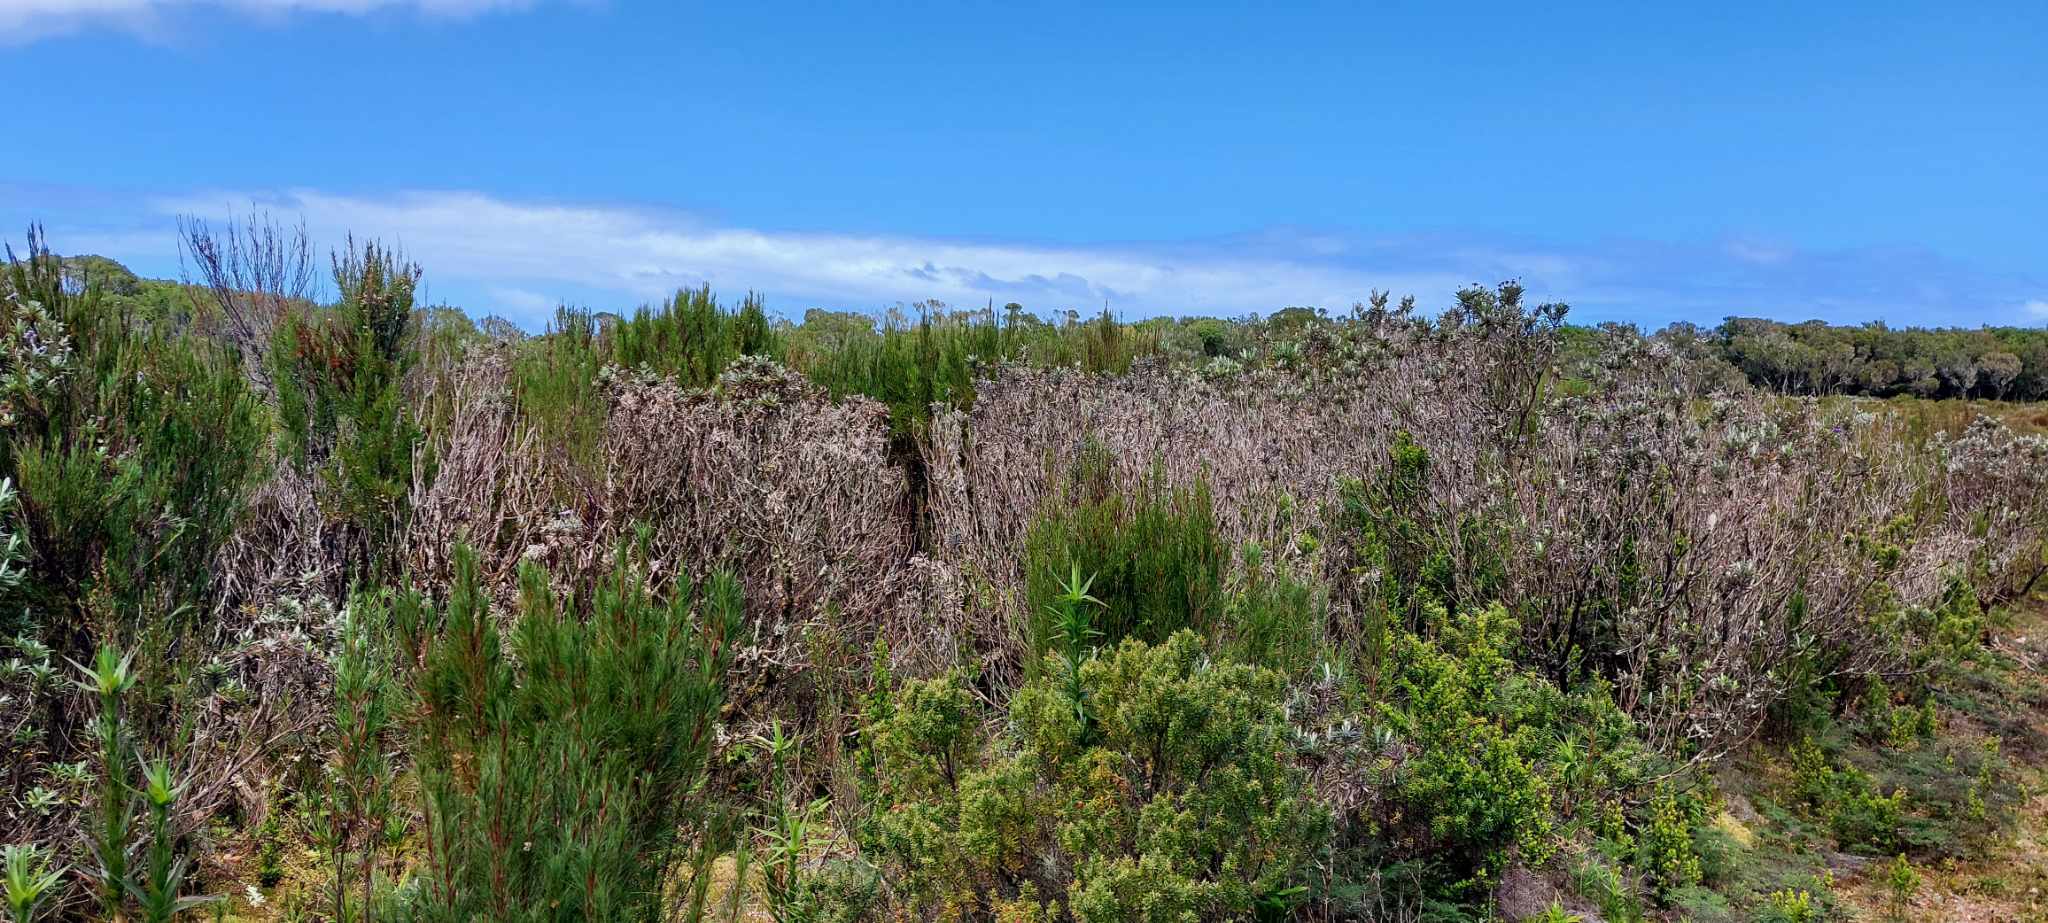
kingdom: Plantae
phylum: Tracheophyta
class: Magnoliopsida
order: Asterales
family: Asteraceae
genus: Macrolearia
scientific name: Macrolearia semidentata
